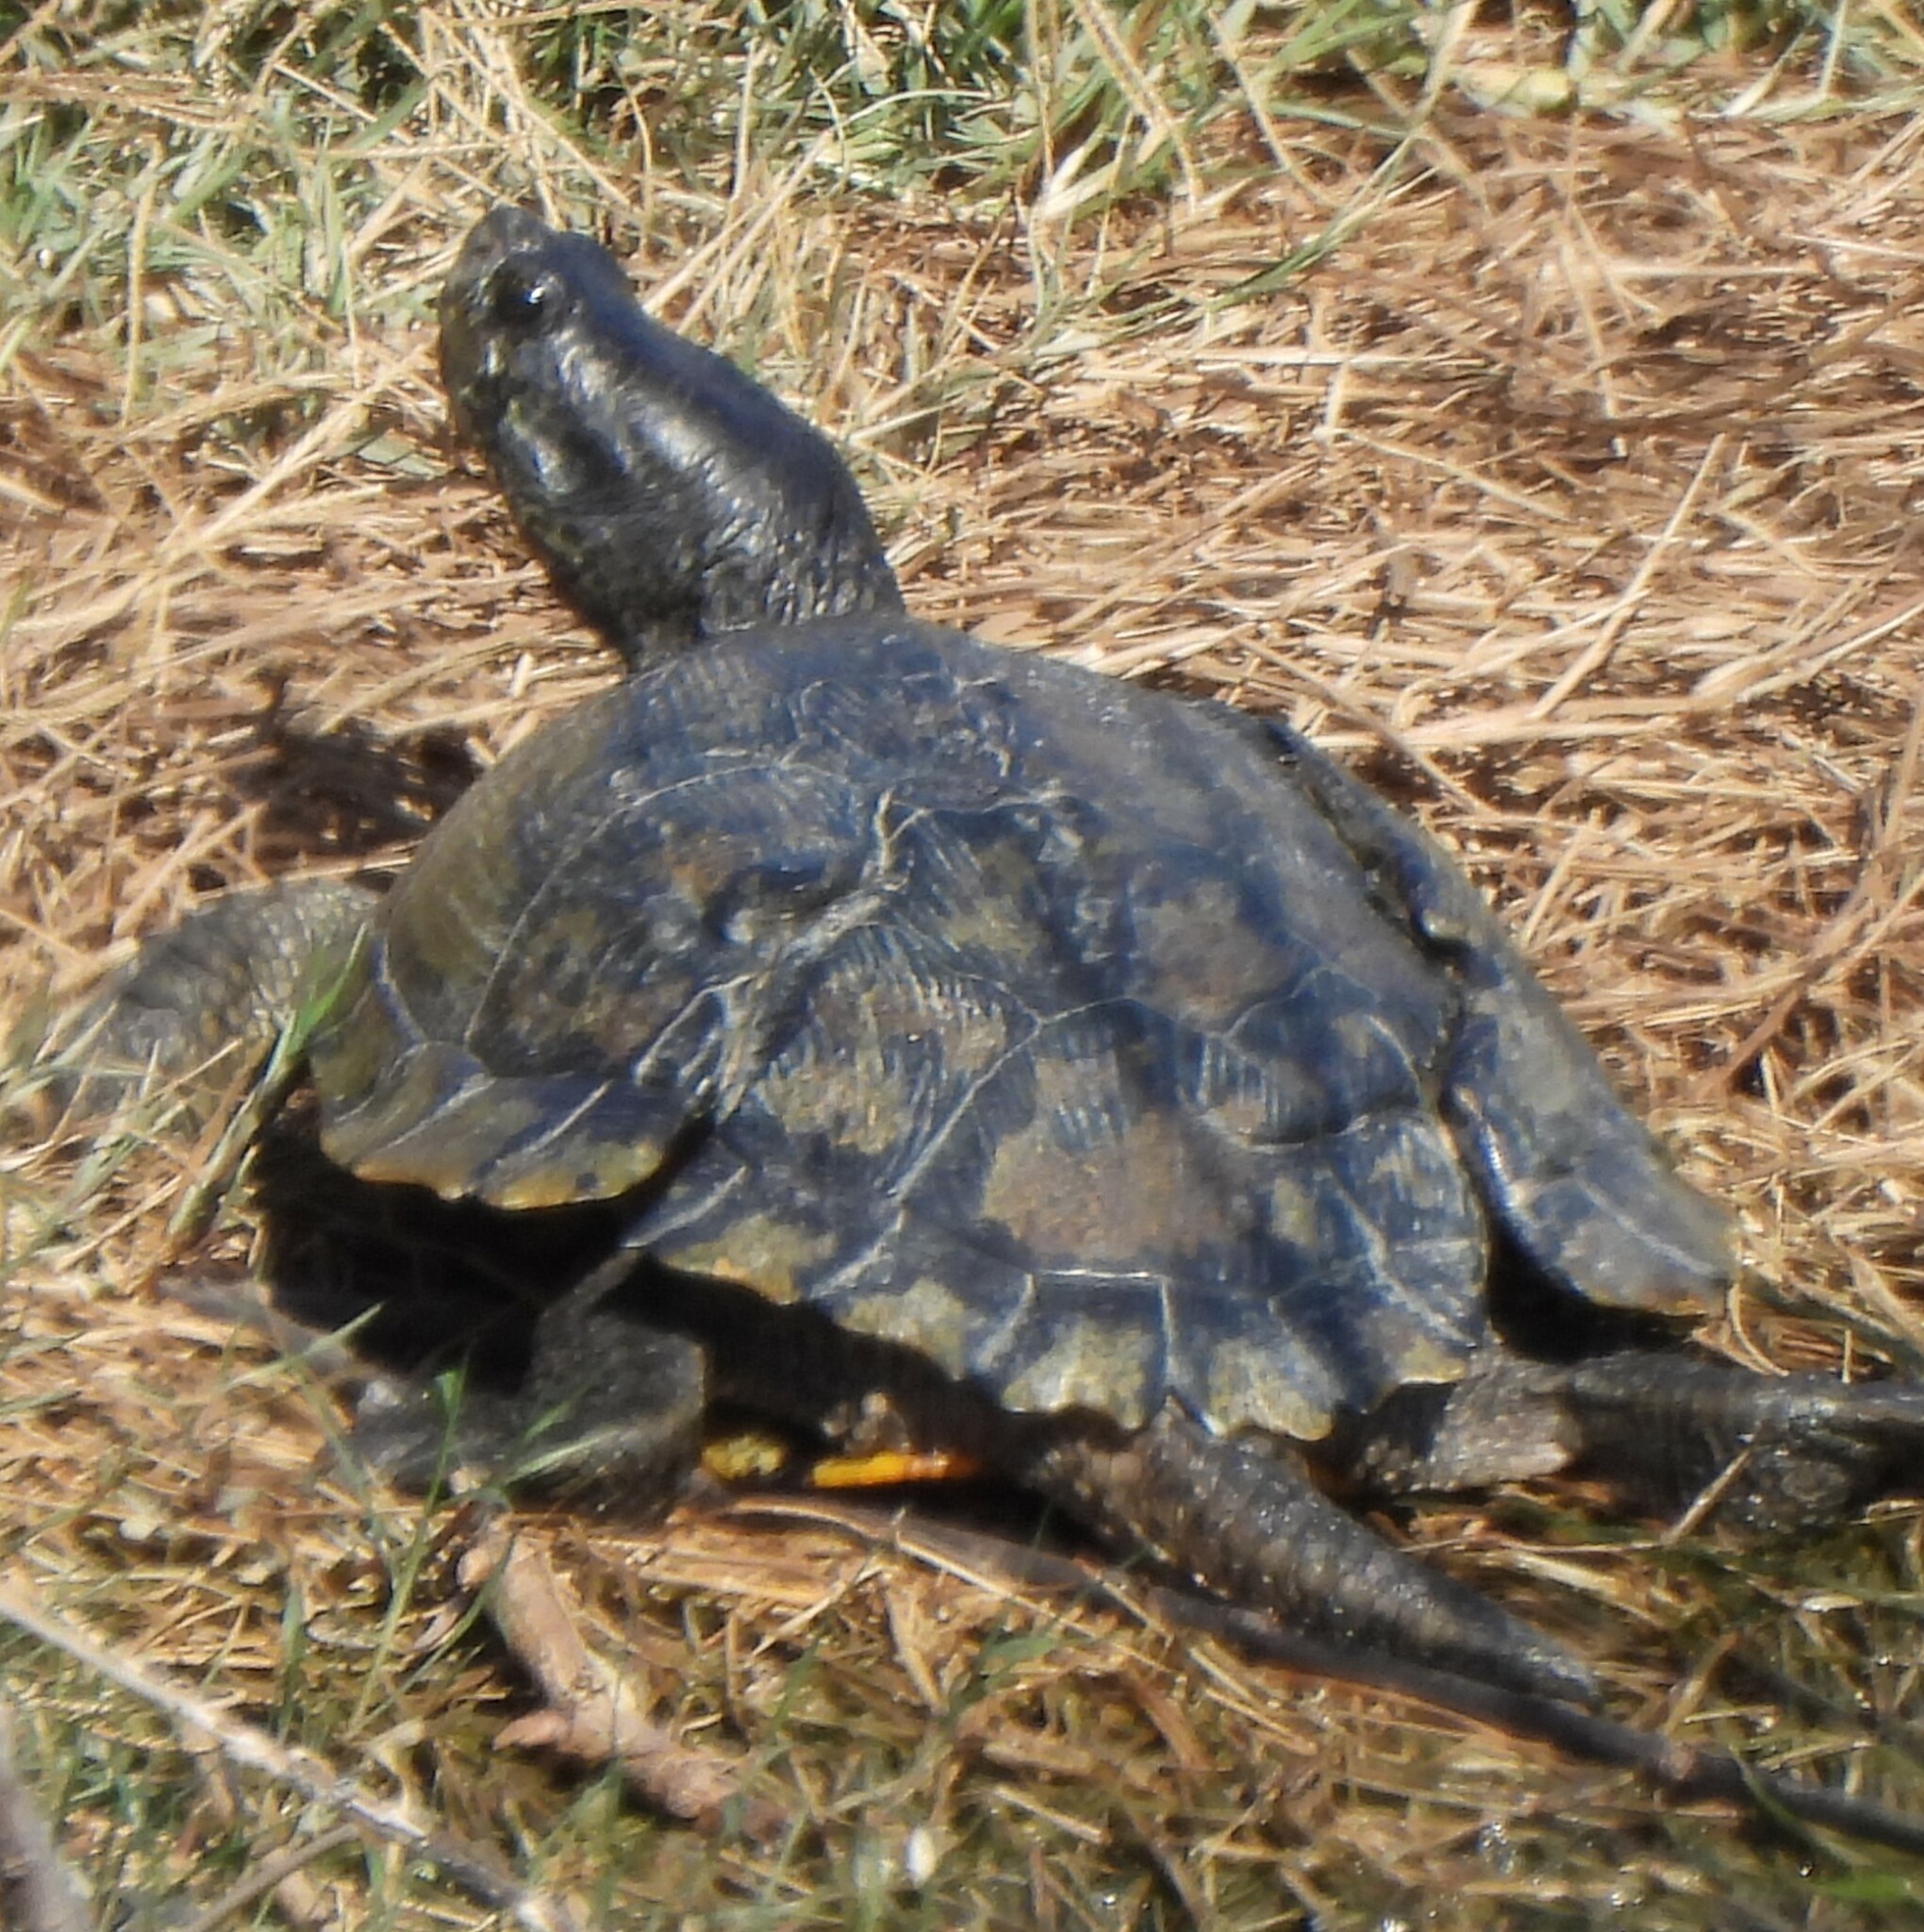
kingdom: Animalia
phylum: Chordata
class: Testudines
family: Emydidae
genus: Trachemys
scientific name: Trachemys scripta
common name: Slider
